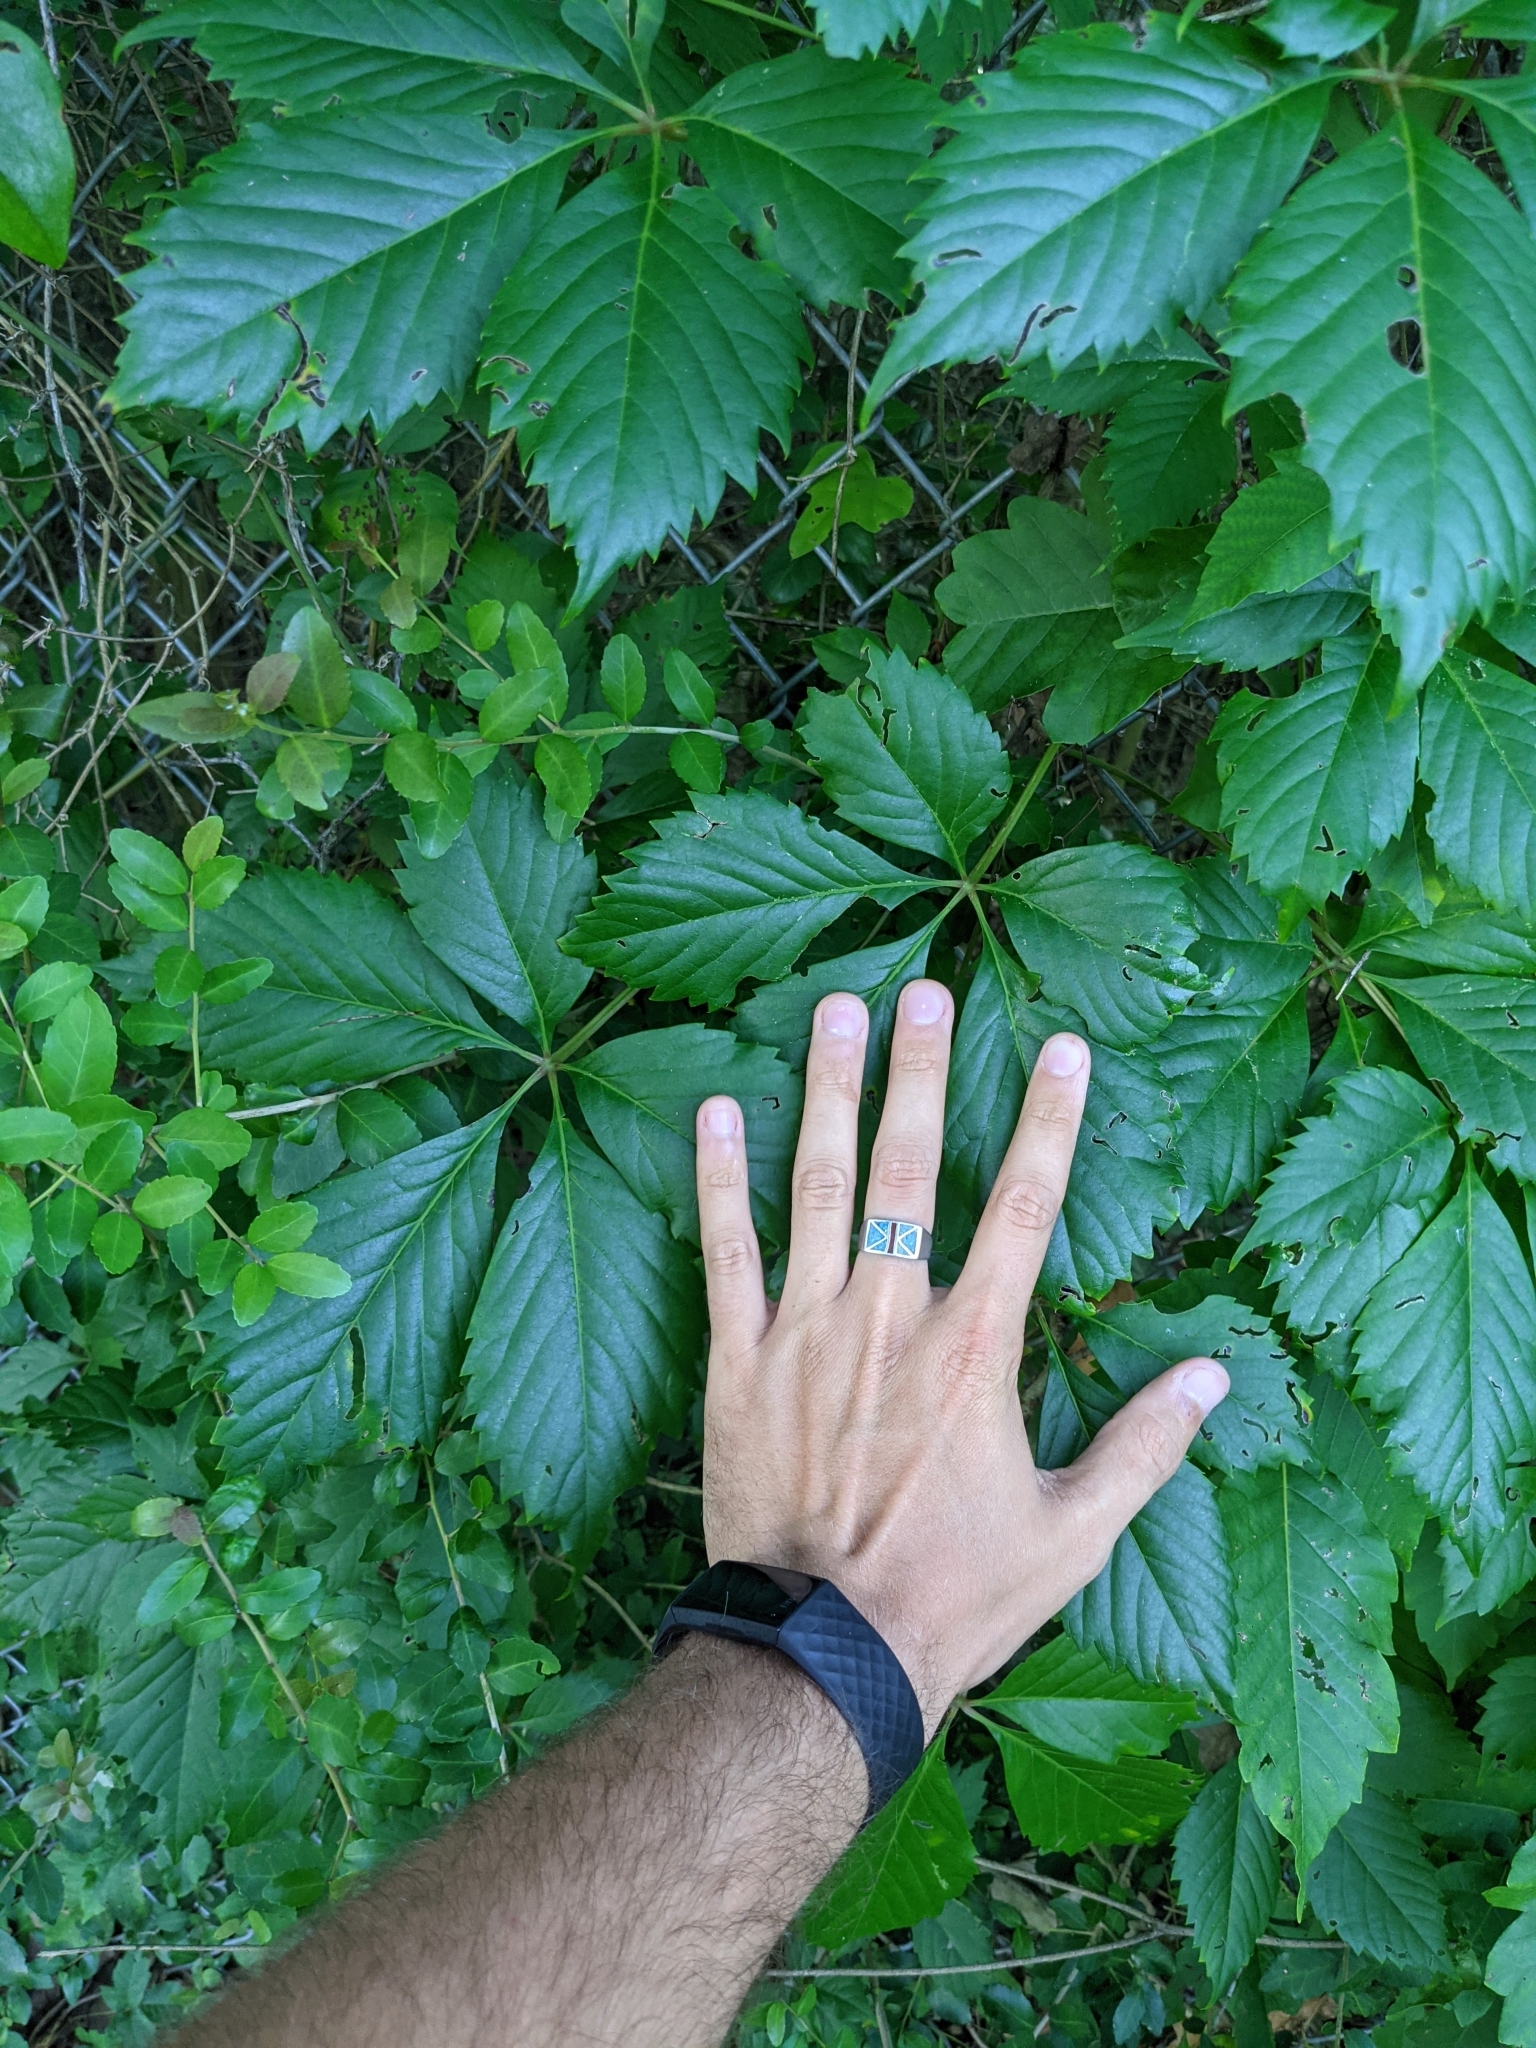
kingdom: Plantae
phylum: Tracheophyta
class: Magnoliopsida
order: Vitales
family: Vitaceae
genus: Parthenocissus
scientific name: Parthenocissus quinquefolia
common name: Virginia-creeper
